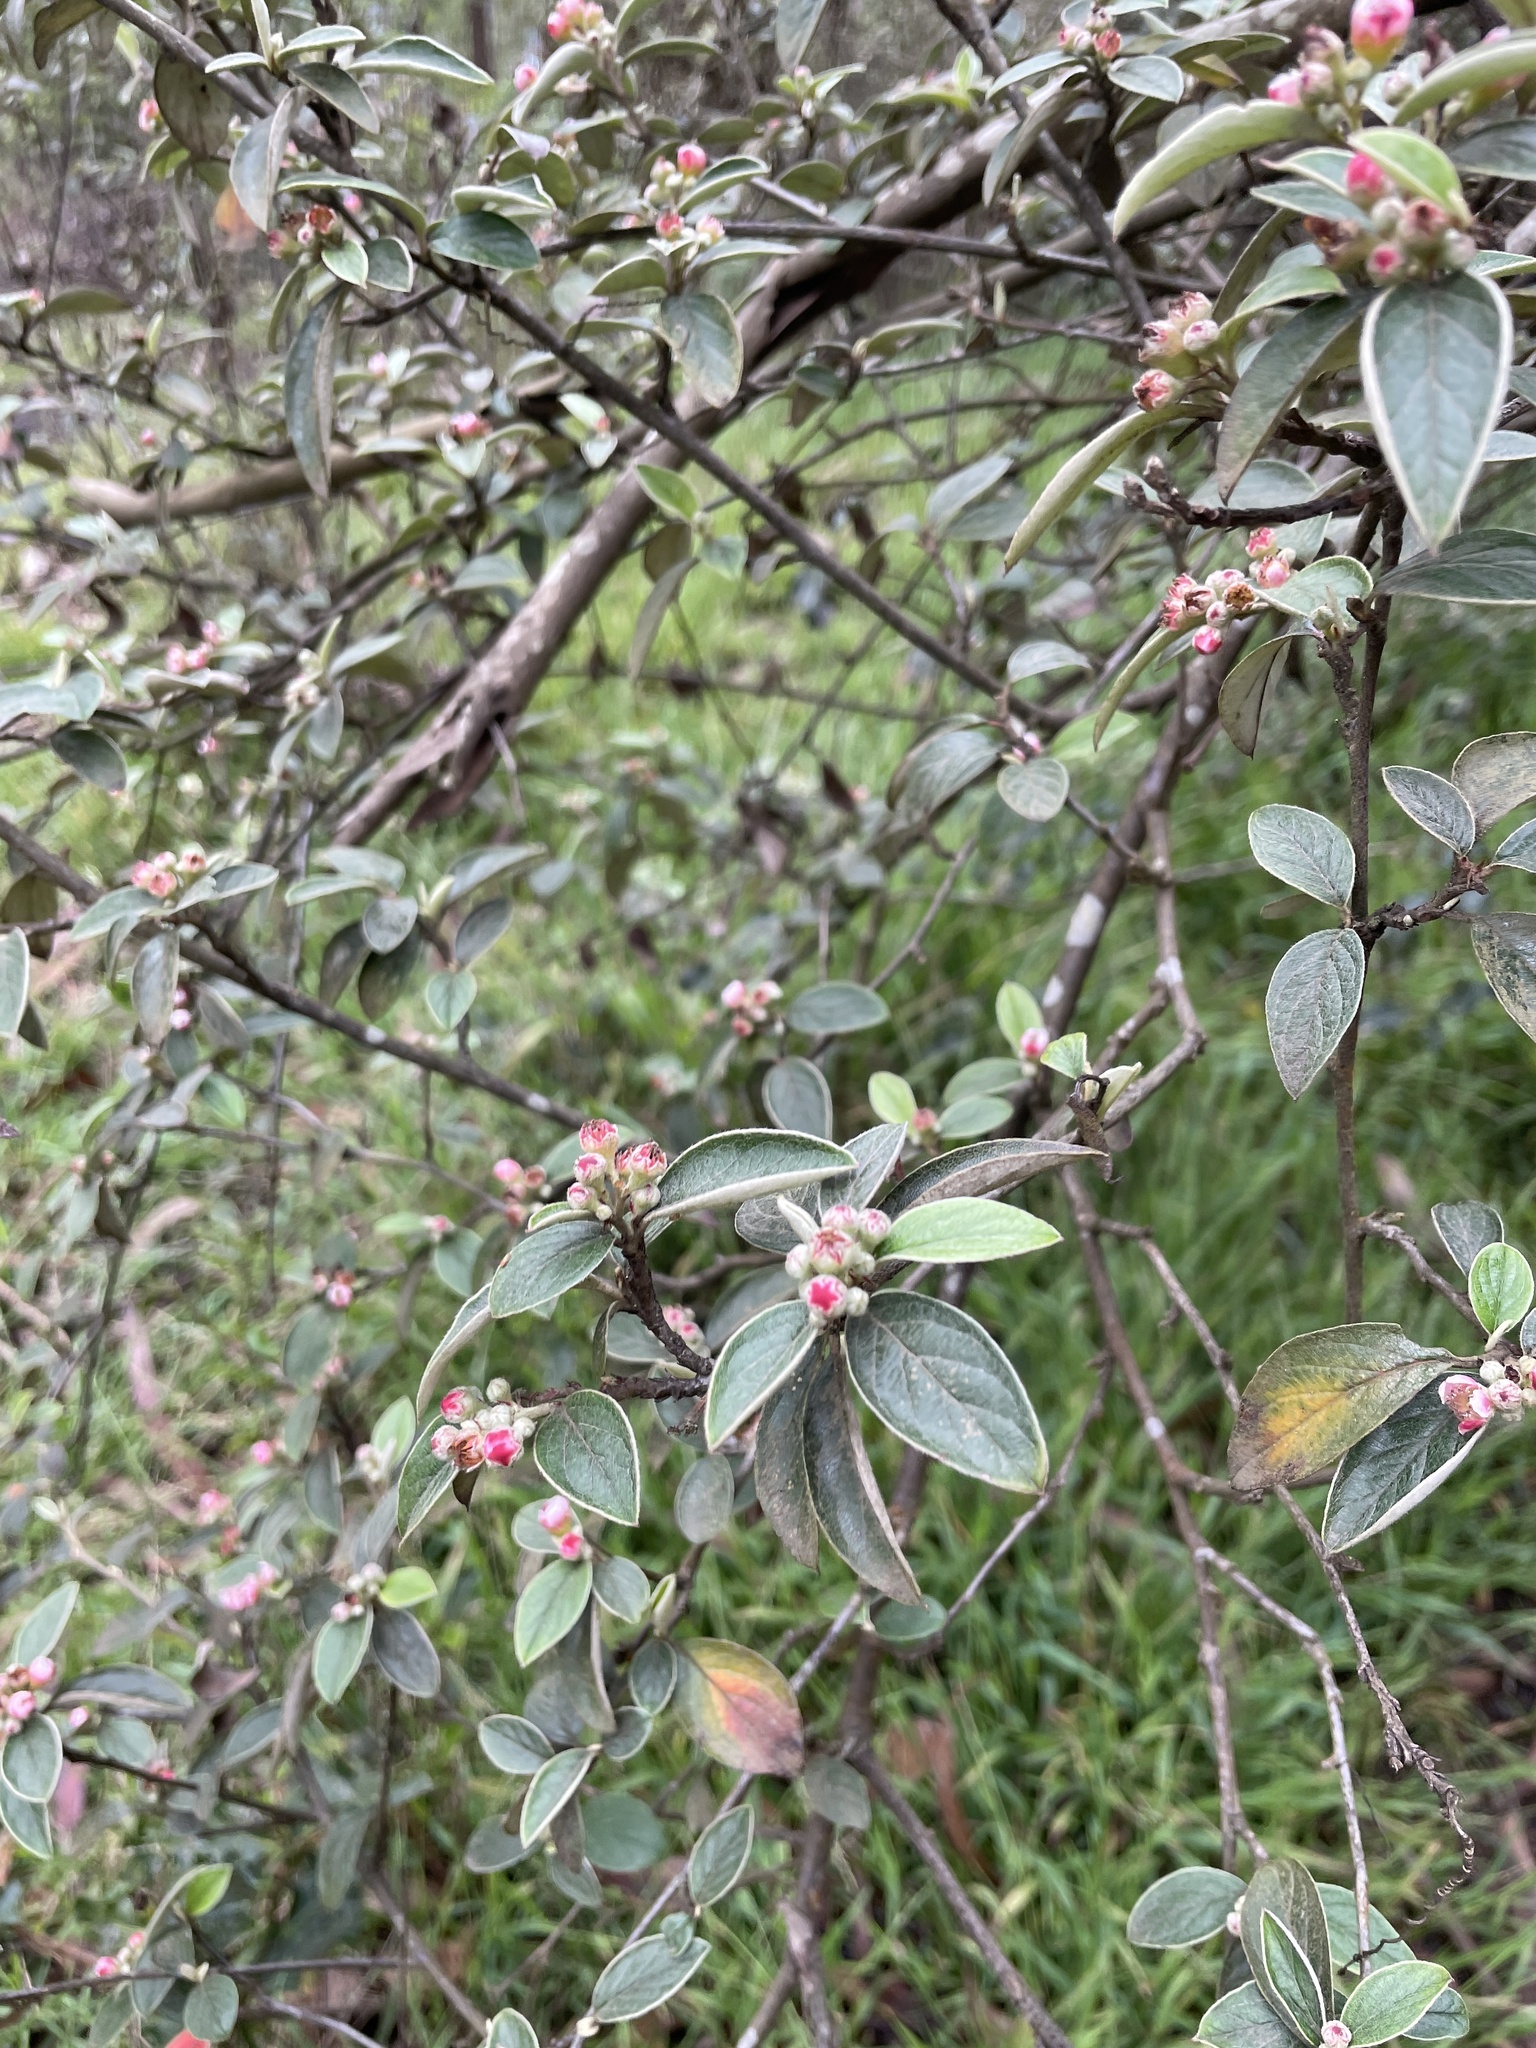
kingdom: Plantae
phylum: Tracheophyta
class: Magnoliopsida
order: Rosales
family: Rosaceae
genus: Cotoneaster
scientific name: Cotoneaster pannosus
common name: Silverleaf cotoneaster
